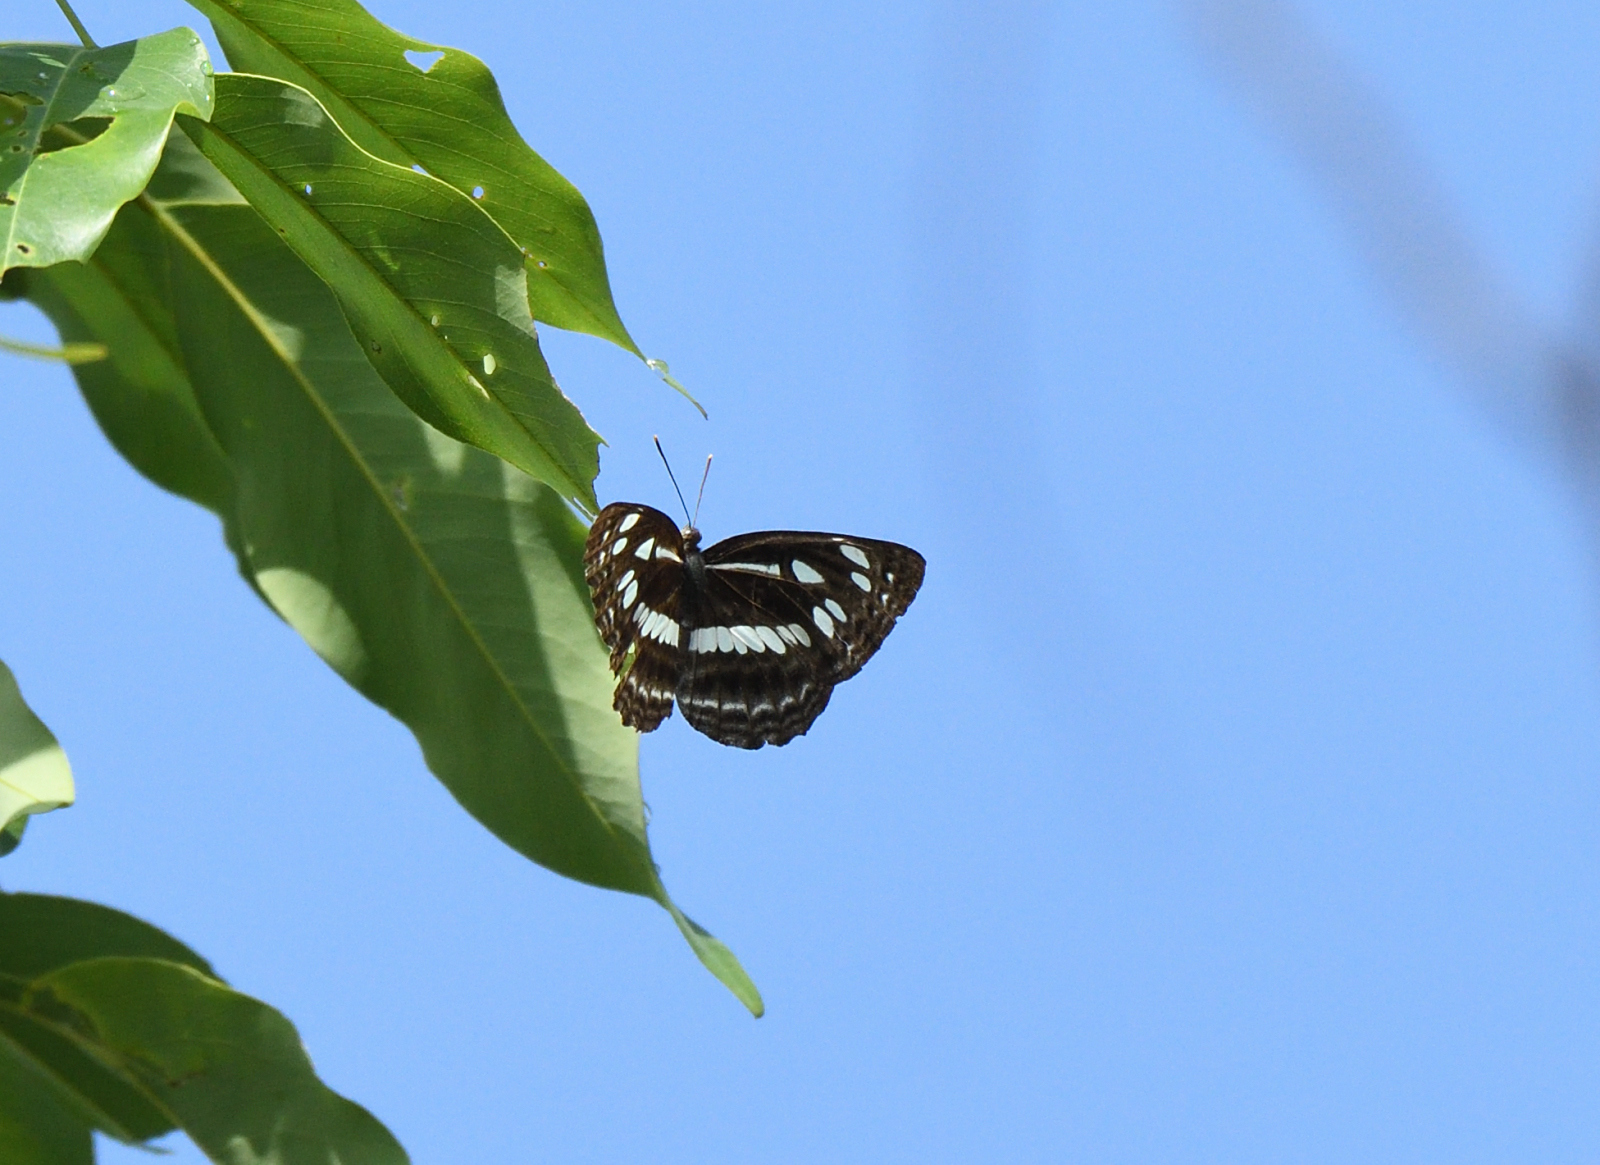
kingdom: Animalia
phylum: Arthropoda
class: Insecta
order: Lepidoptera
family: Nymphalidae
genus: Neptis
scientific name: Neptis jumbah
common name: Chestnut-streaked sailer
